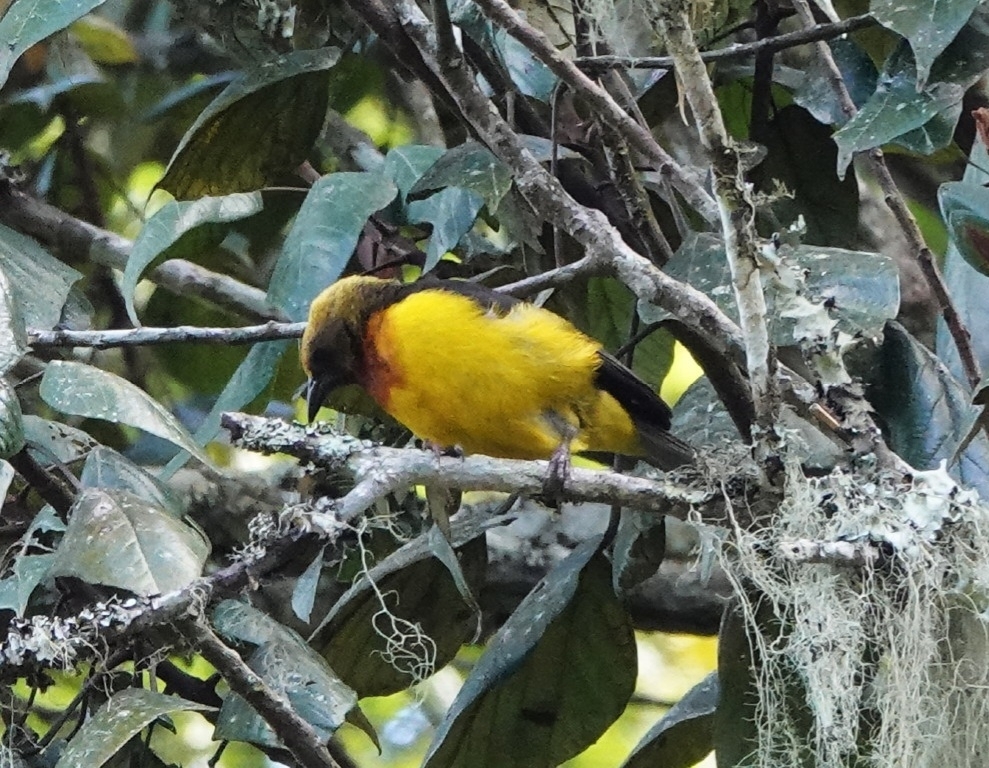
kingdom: Animalia
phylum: Chordata
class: Aves
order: Passeriformes
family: Ploceidae
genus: Ploceus
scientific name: Ploceus nicolli
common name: Usambara weaver
